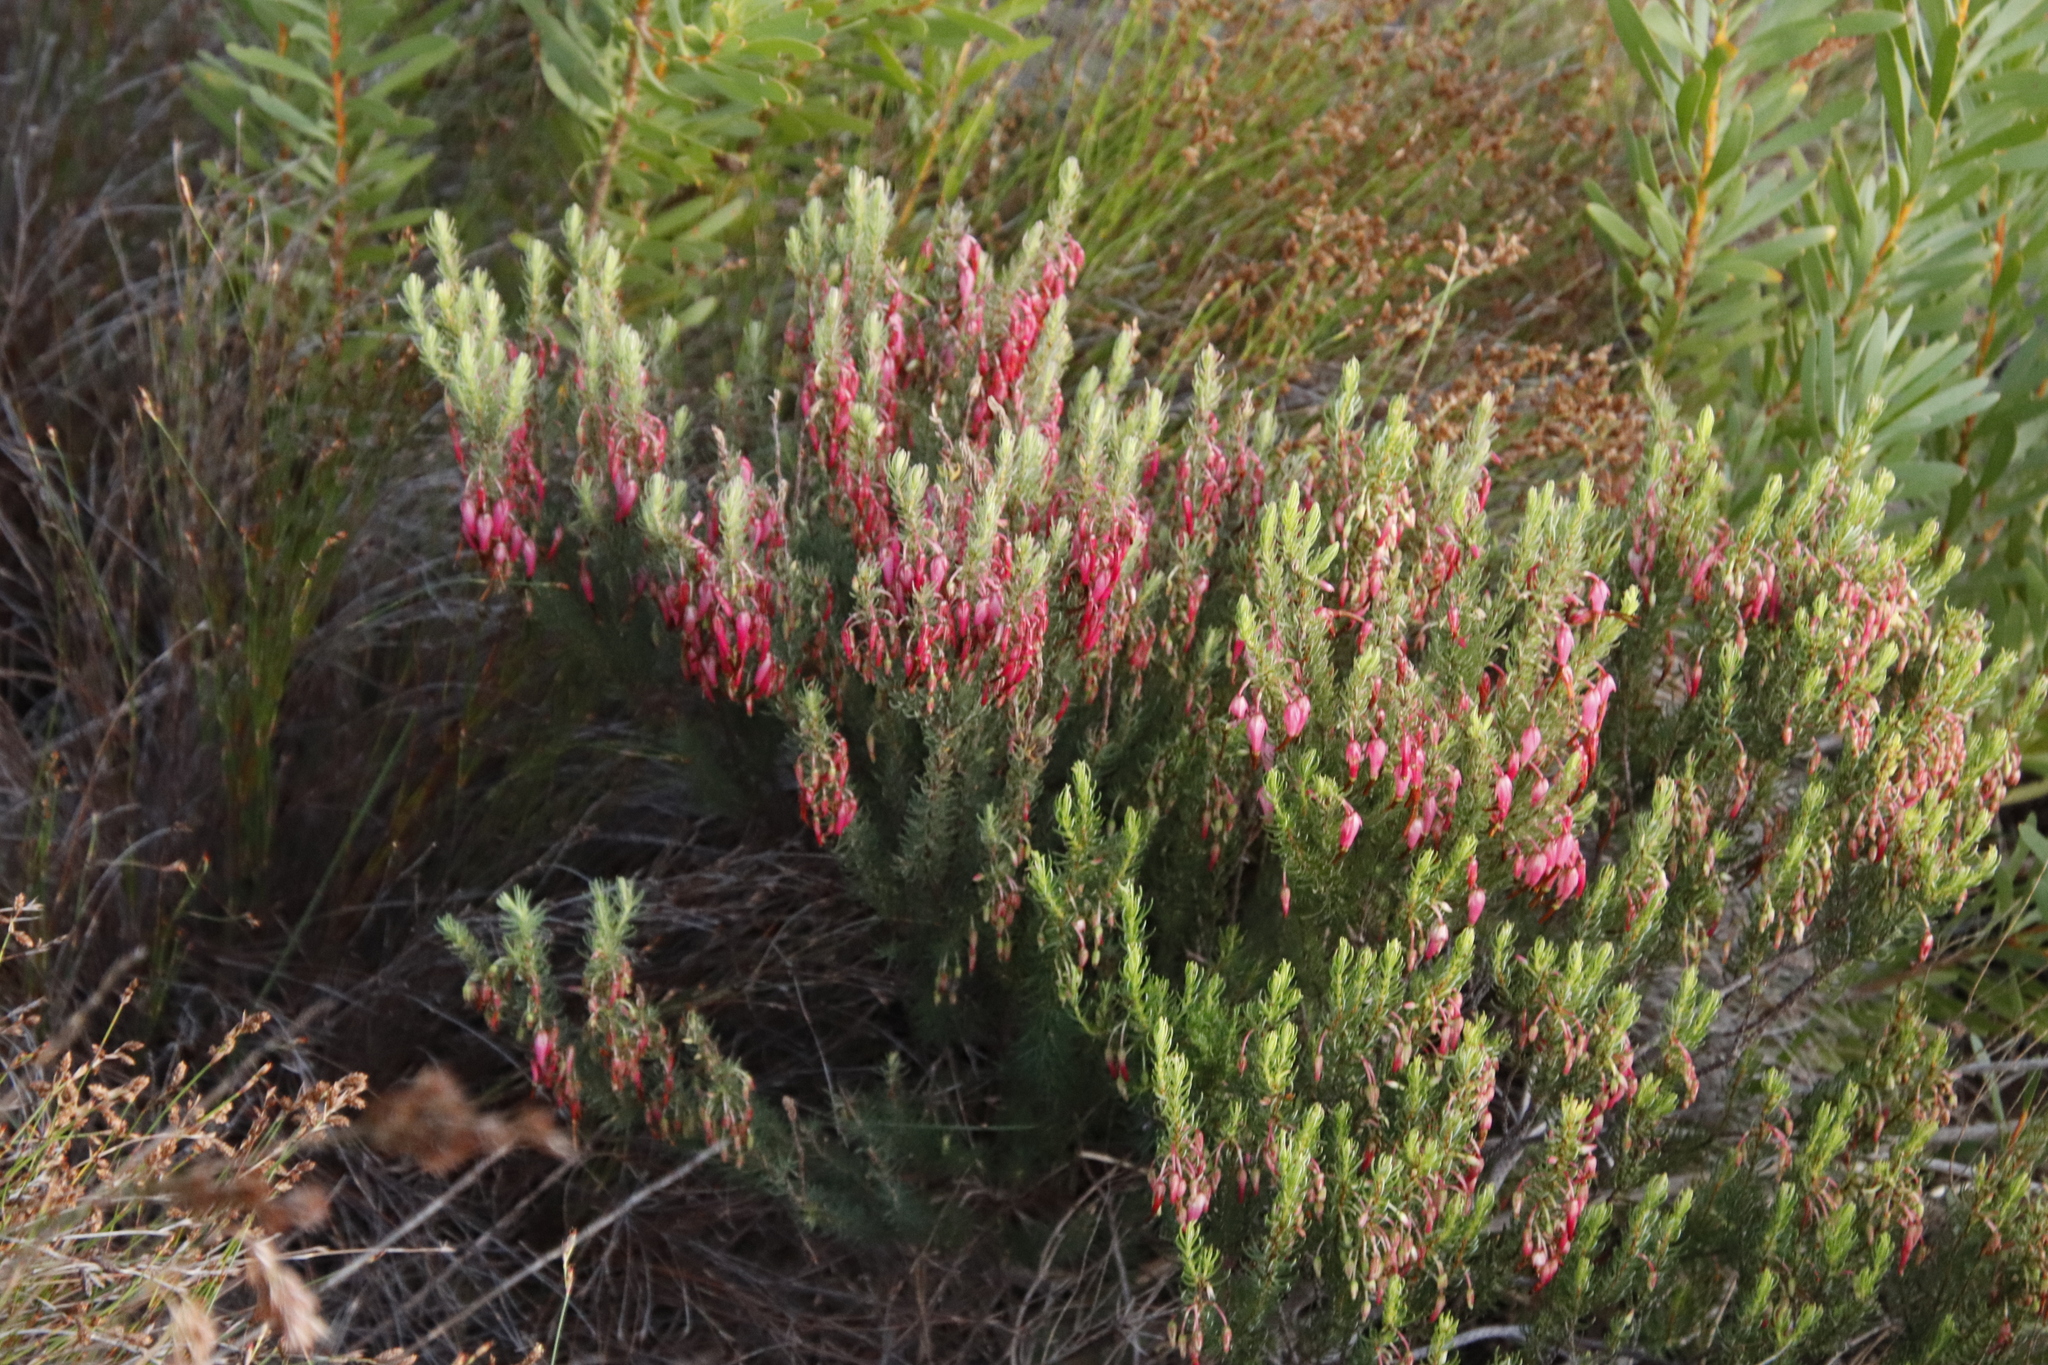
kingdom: Plantae
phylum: Tracheophyta
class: Magnoliopsida
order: Ericales
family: Ericaceae
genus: Erica
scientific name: Erica plukenetii
